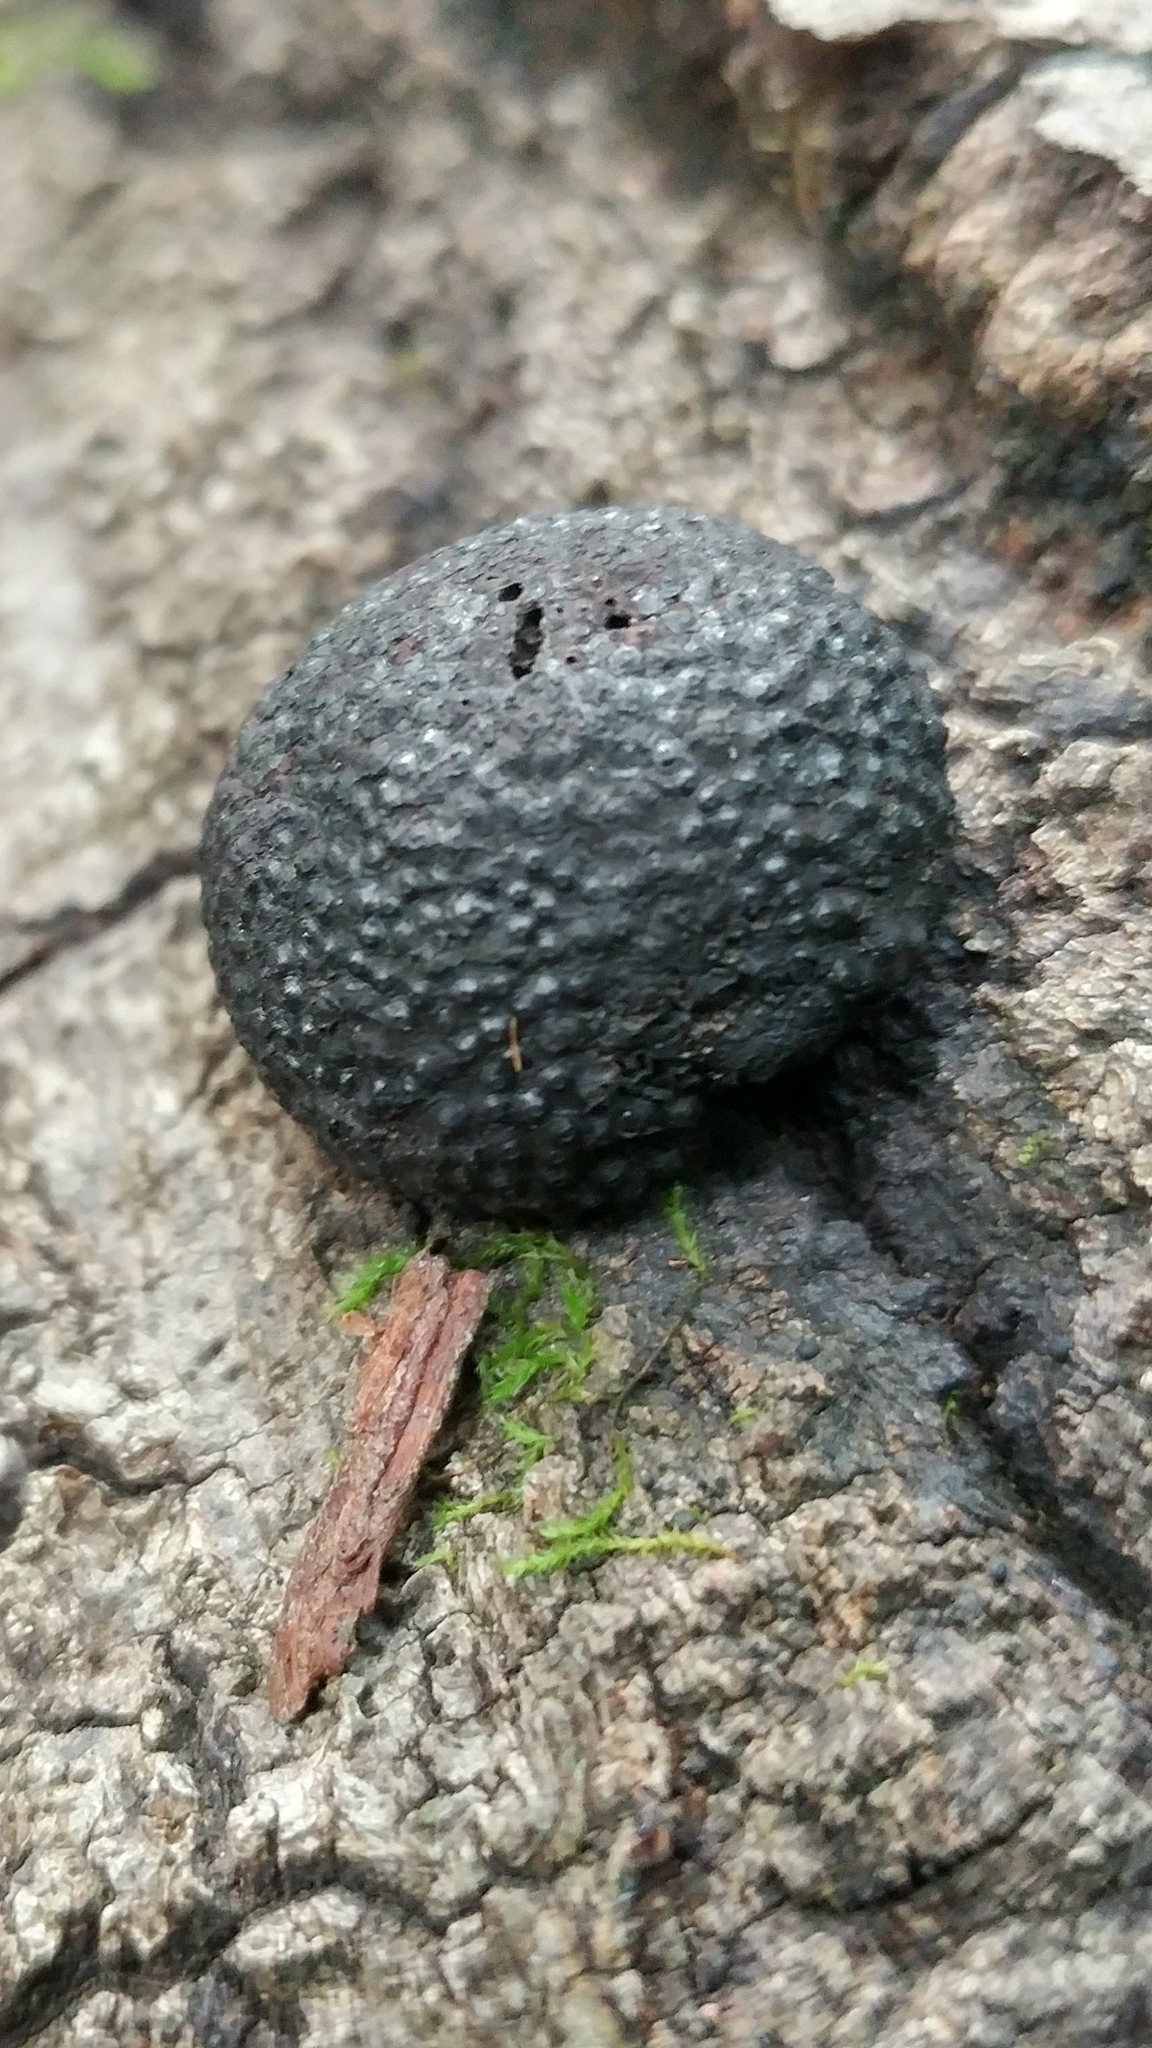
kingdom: Fungi
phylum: Ascomycota
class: Sordariomycetes
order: Xylariales
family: Hypoxylaceae
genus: Annulohypoxylon
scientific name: Annulohypoxylon thouarsianum
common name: Cramp balls
